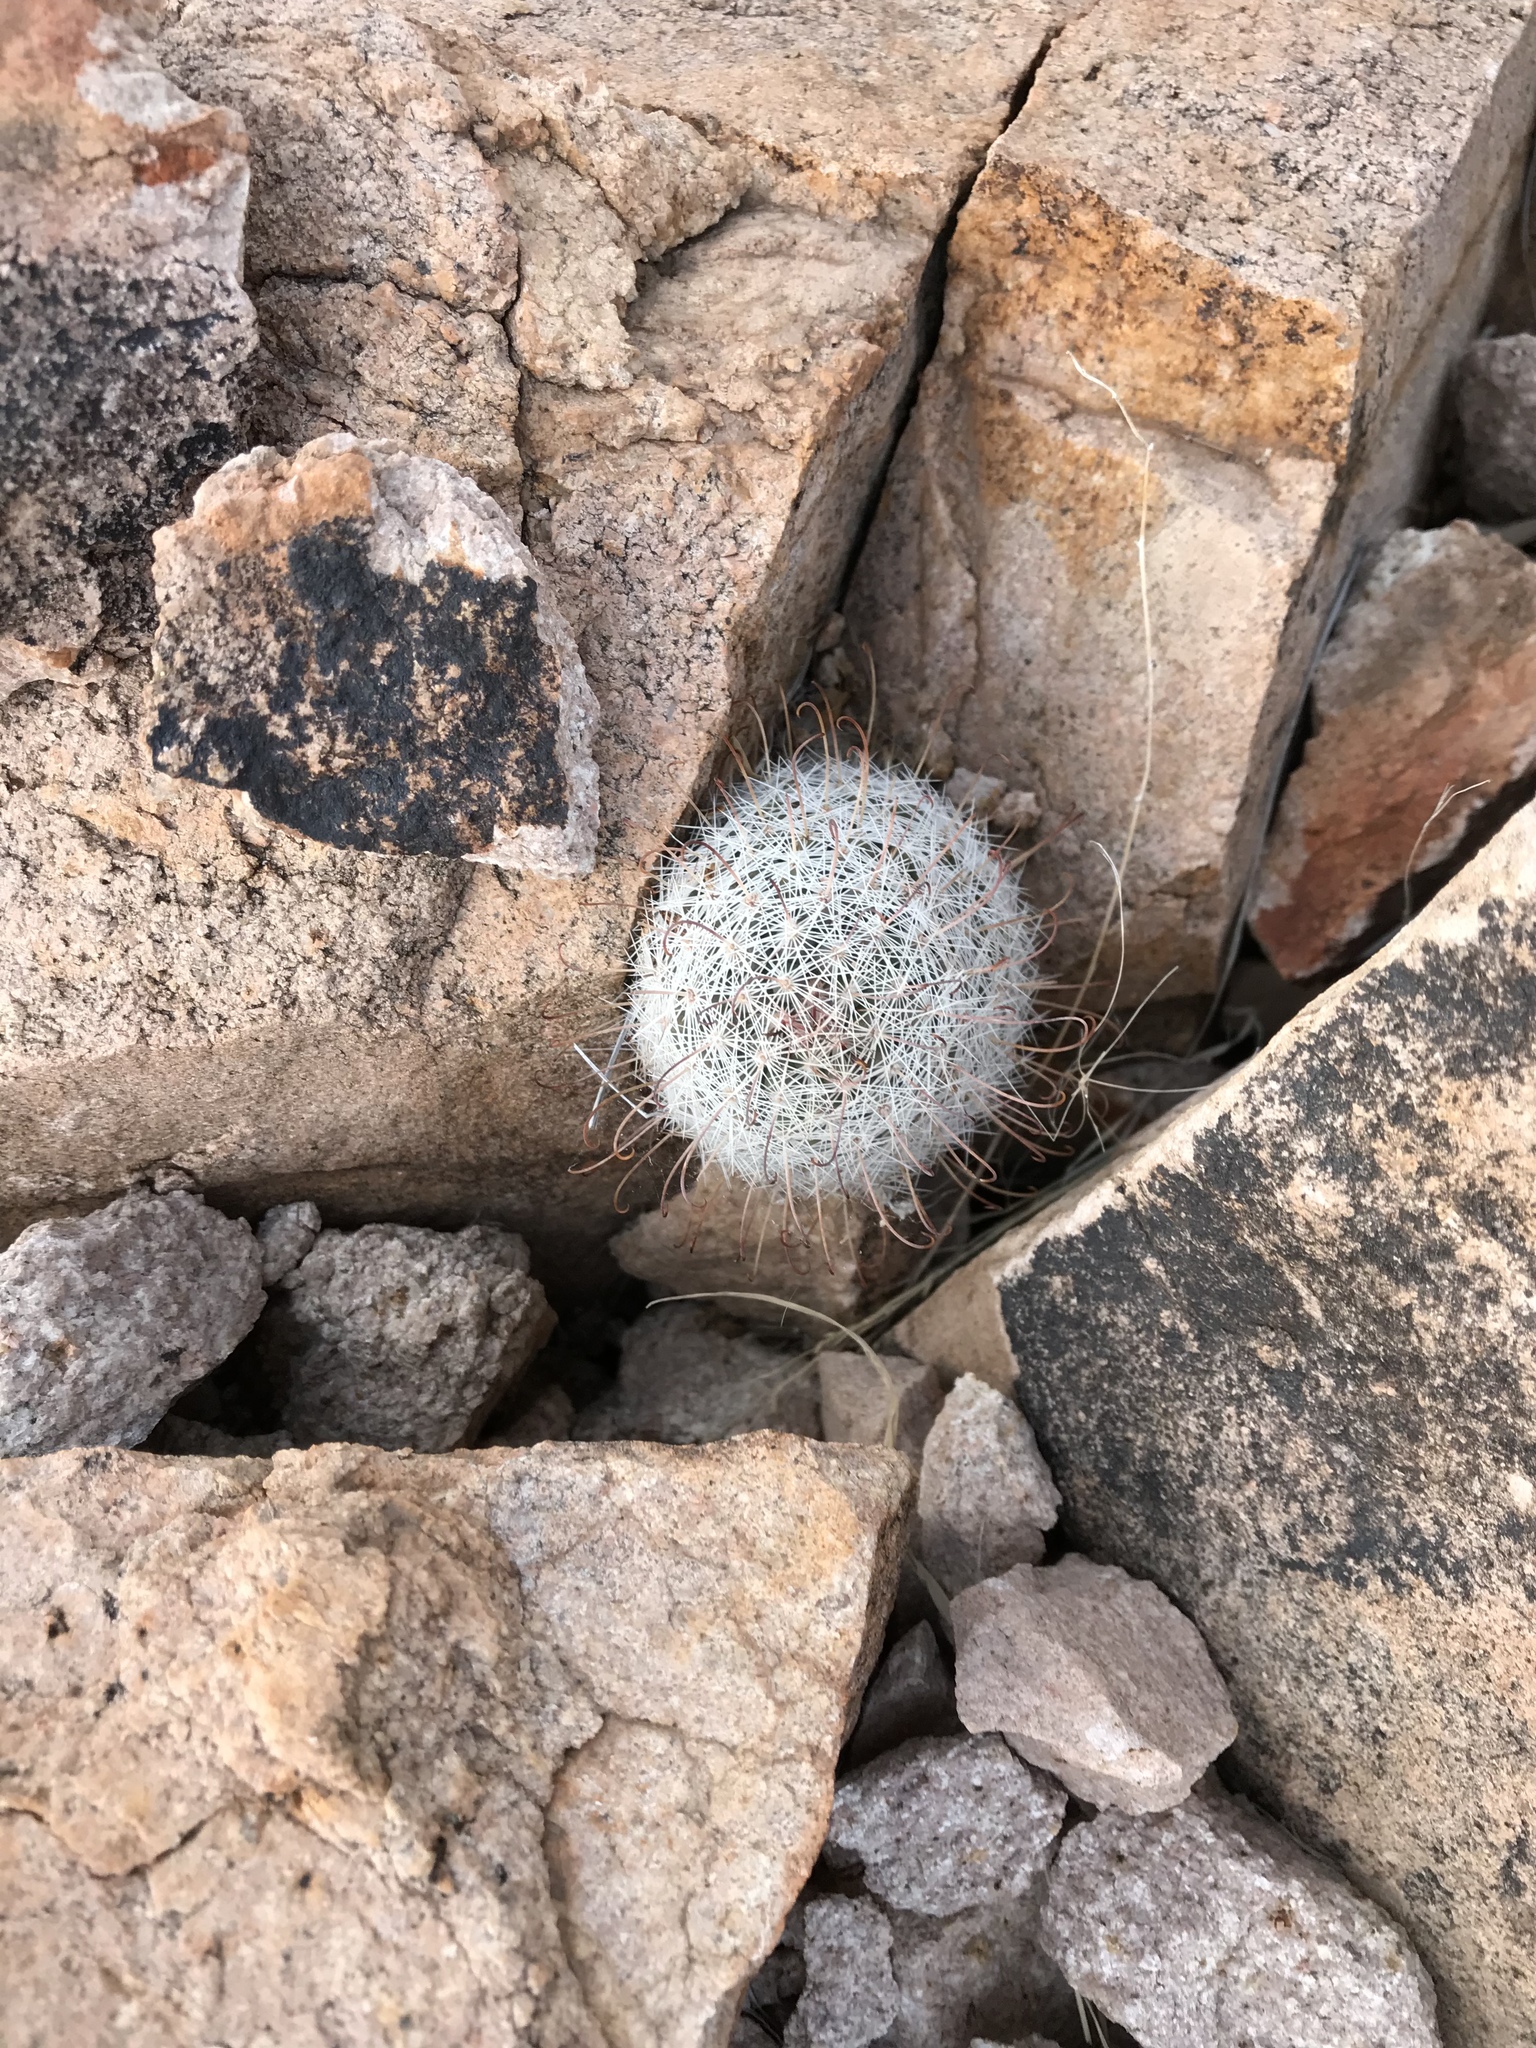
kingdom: Plantae
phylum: Tracheophyta
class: Magnoliopsida
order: Caryophyllales
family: Cactaceae
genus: Cochemiea
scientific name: Cochemiea grahamii
